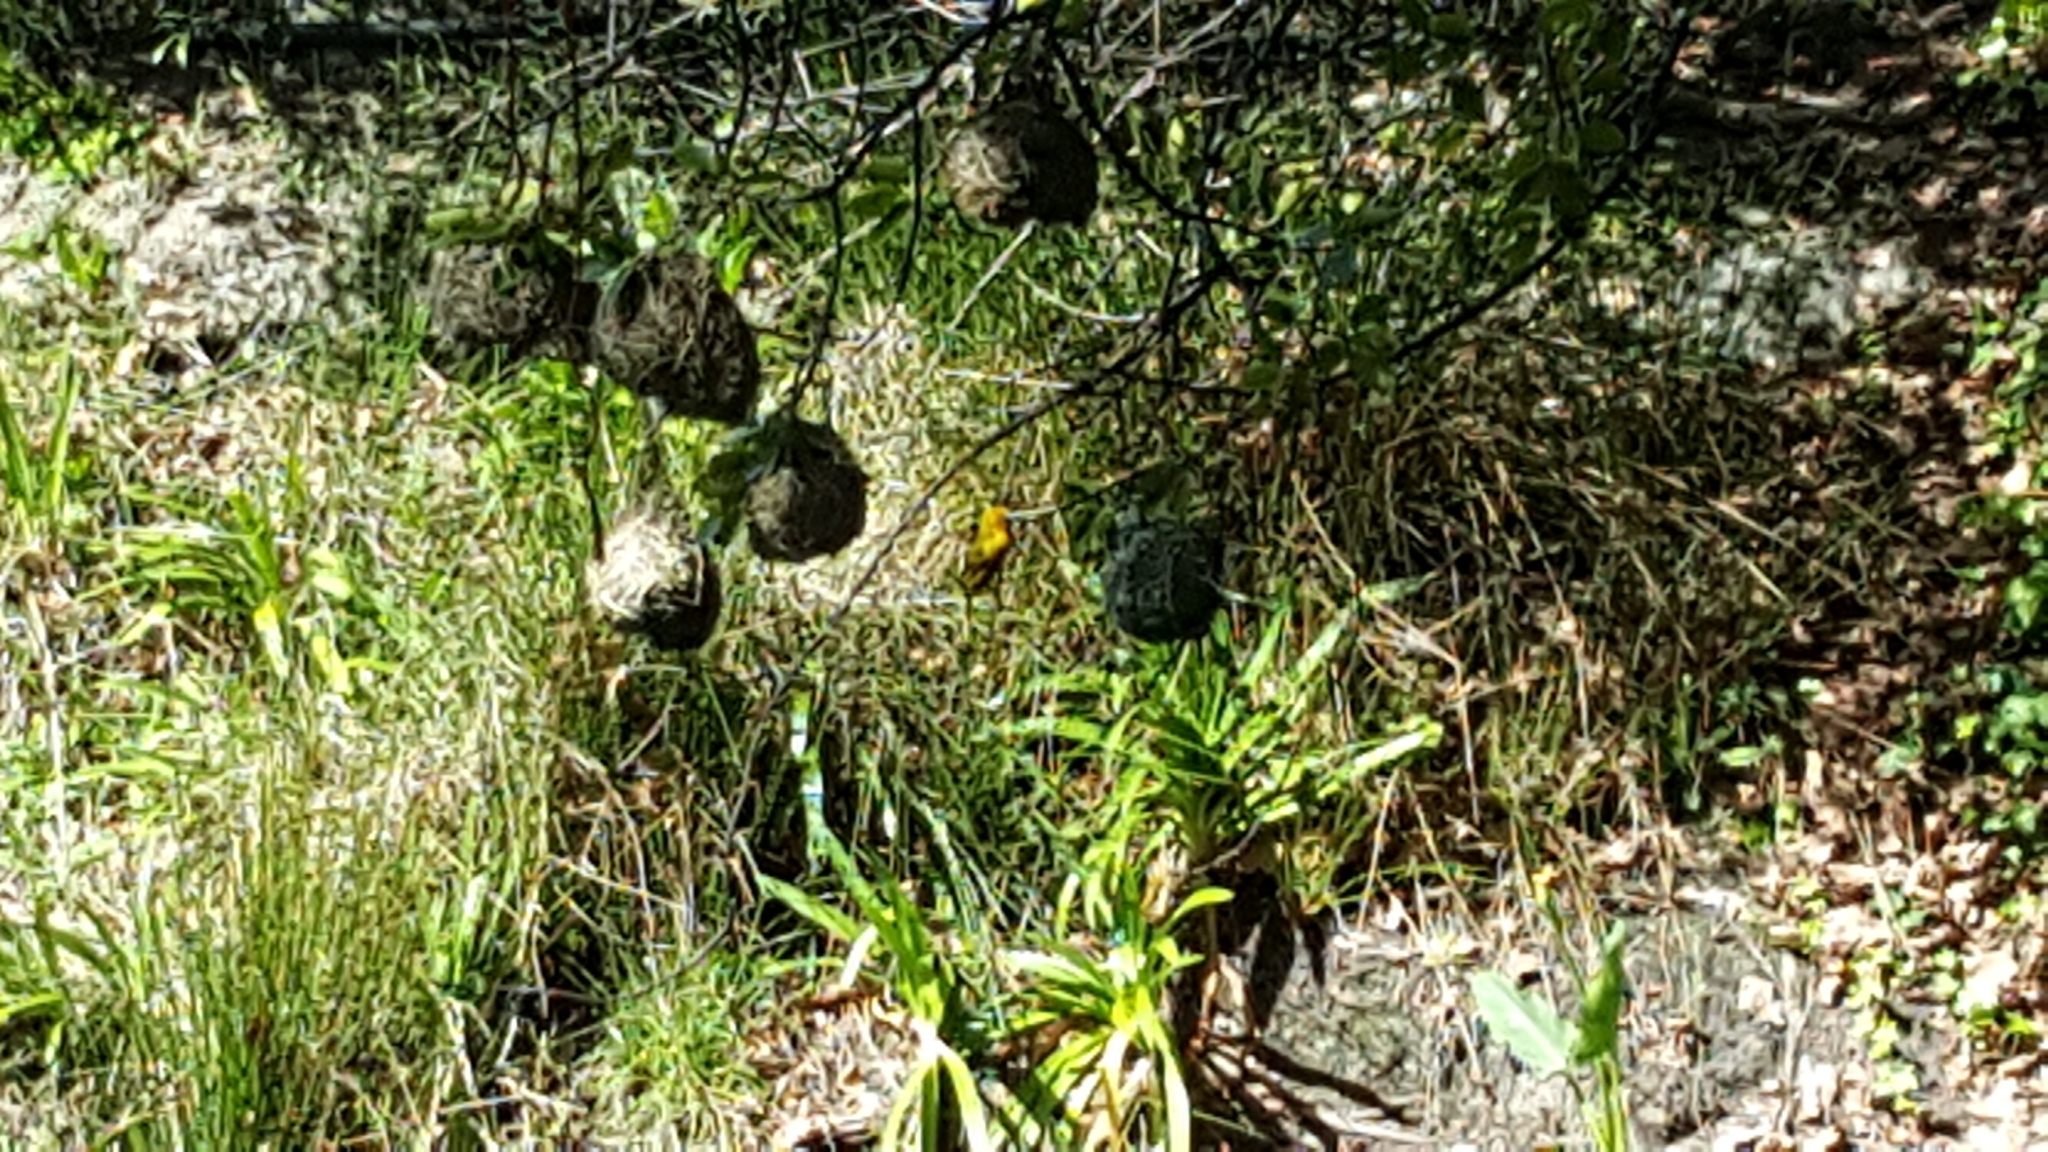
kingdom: Animalia
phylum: Chordata
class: Aves
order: Passeriformes
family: Ploceidae
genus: Ploceus
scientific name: Ploceus capensis
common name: Cape weaver
